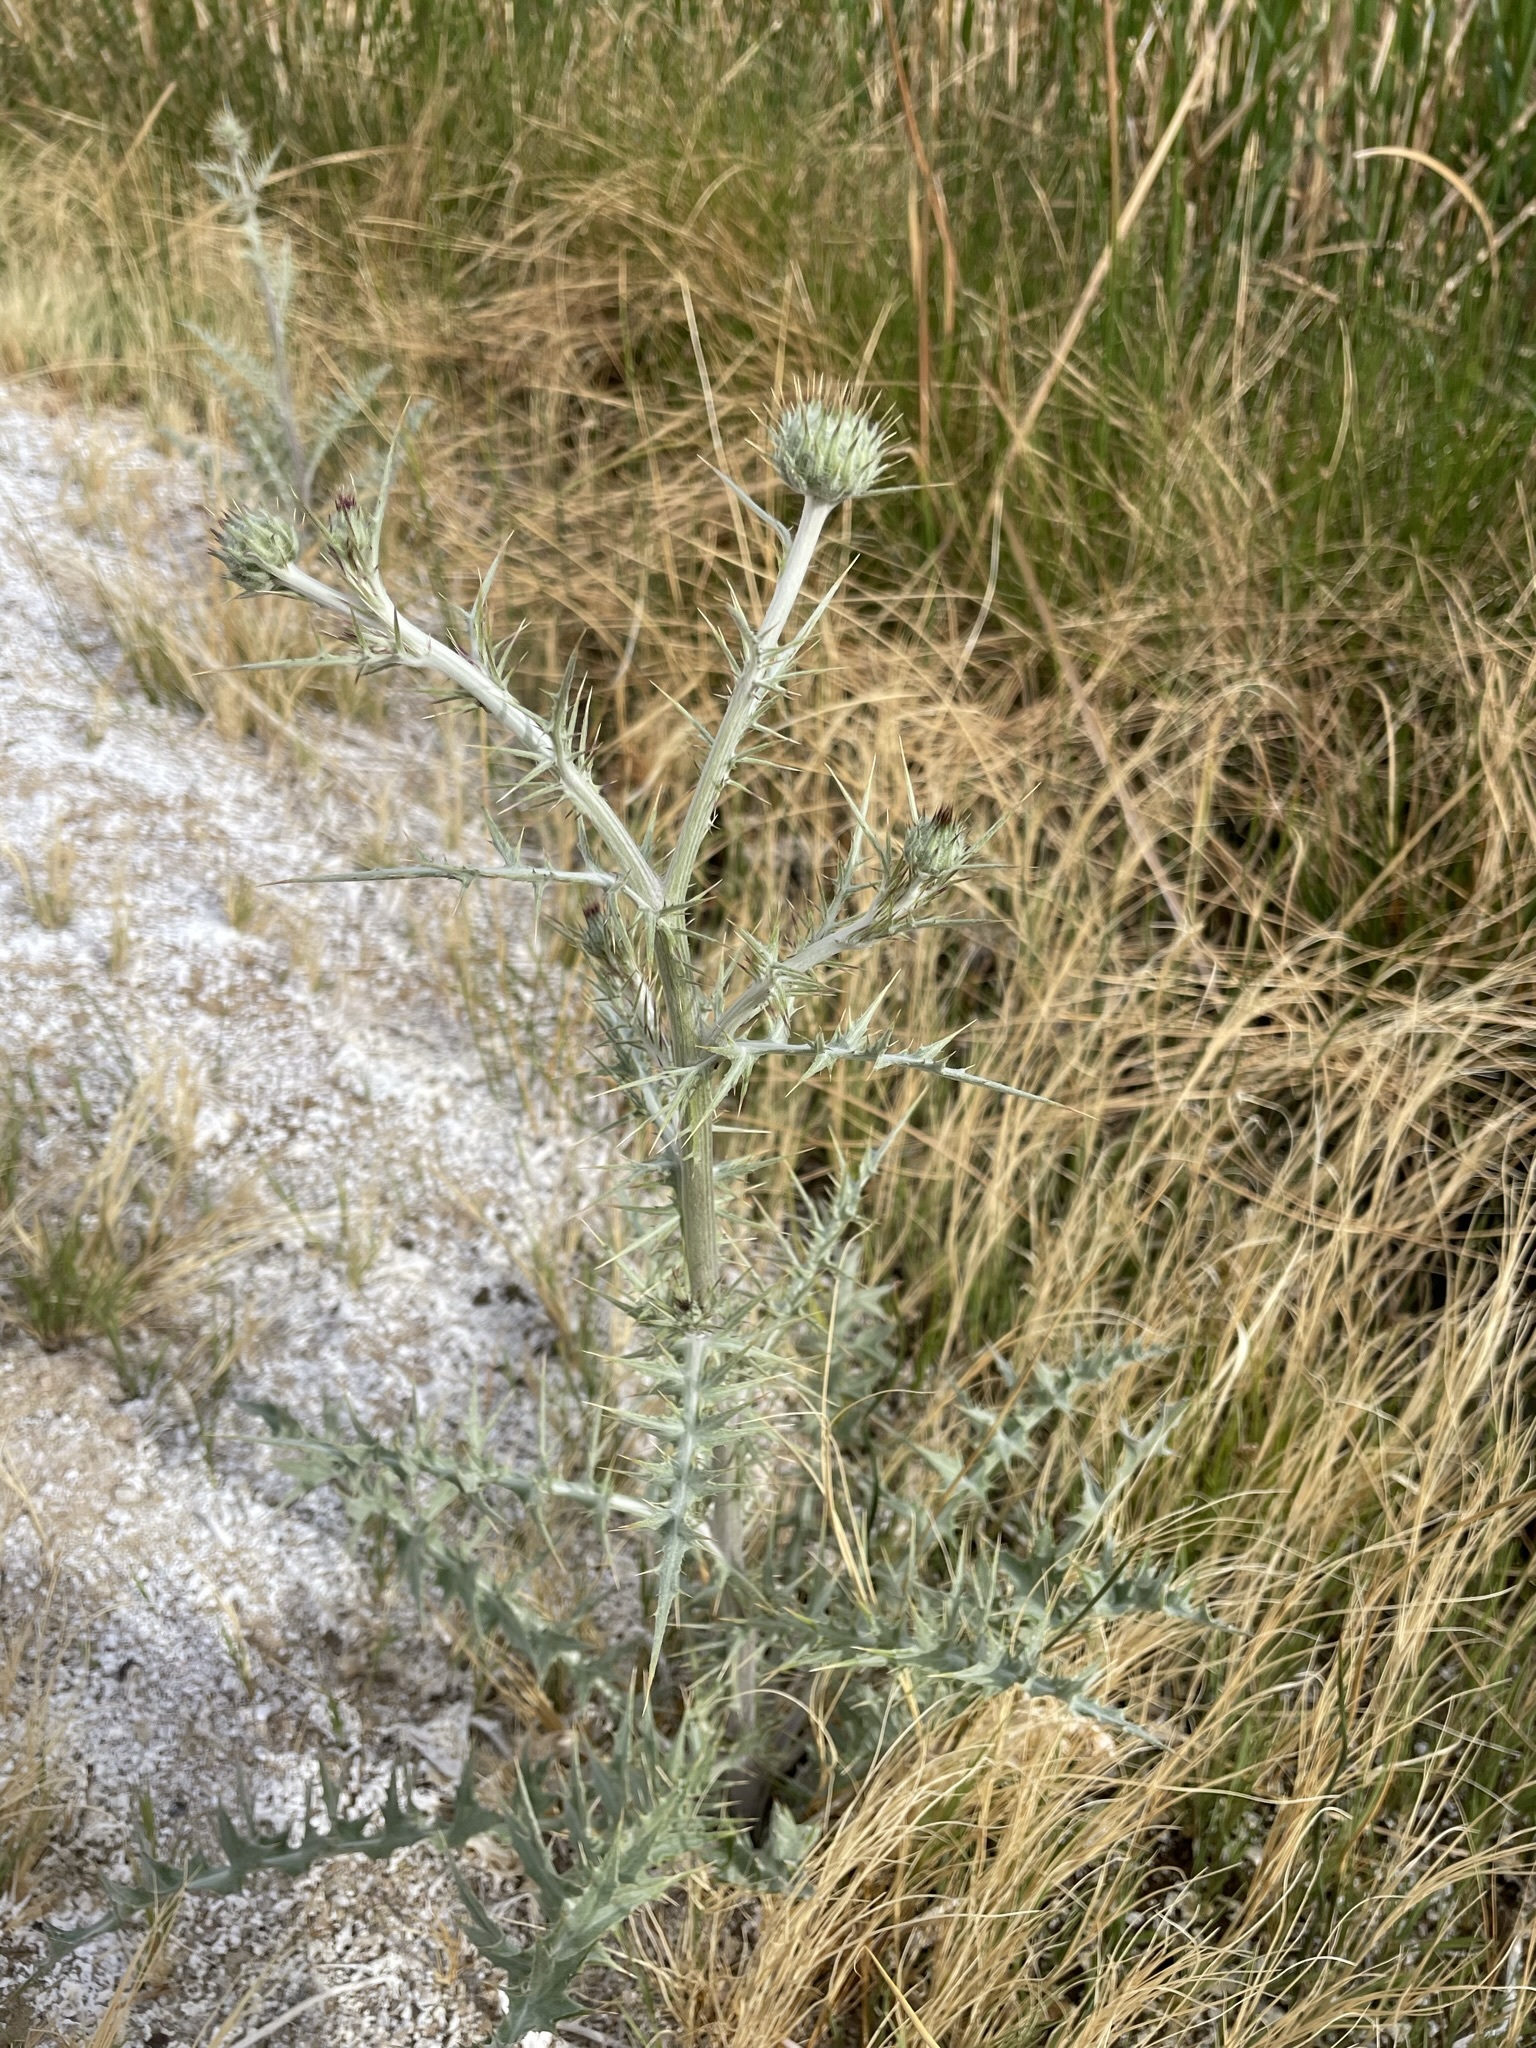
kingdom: Plantae
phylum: Tracheophyta
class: Magnoliopsida
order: Asterales
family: Asteraceae
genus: Cirsium
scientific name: Cirsium mohavense
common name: Mojave thistle
